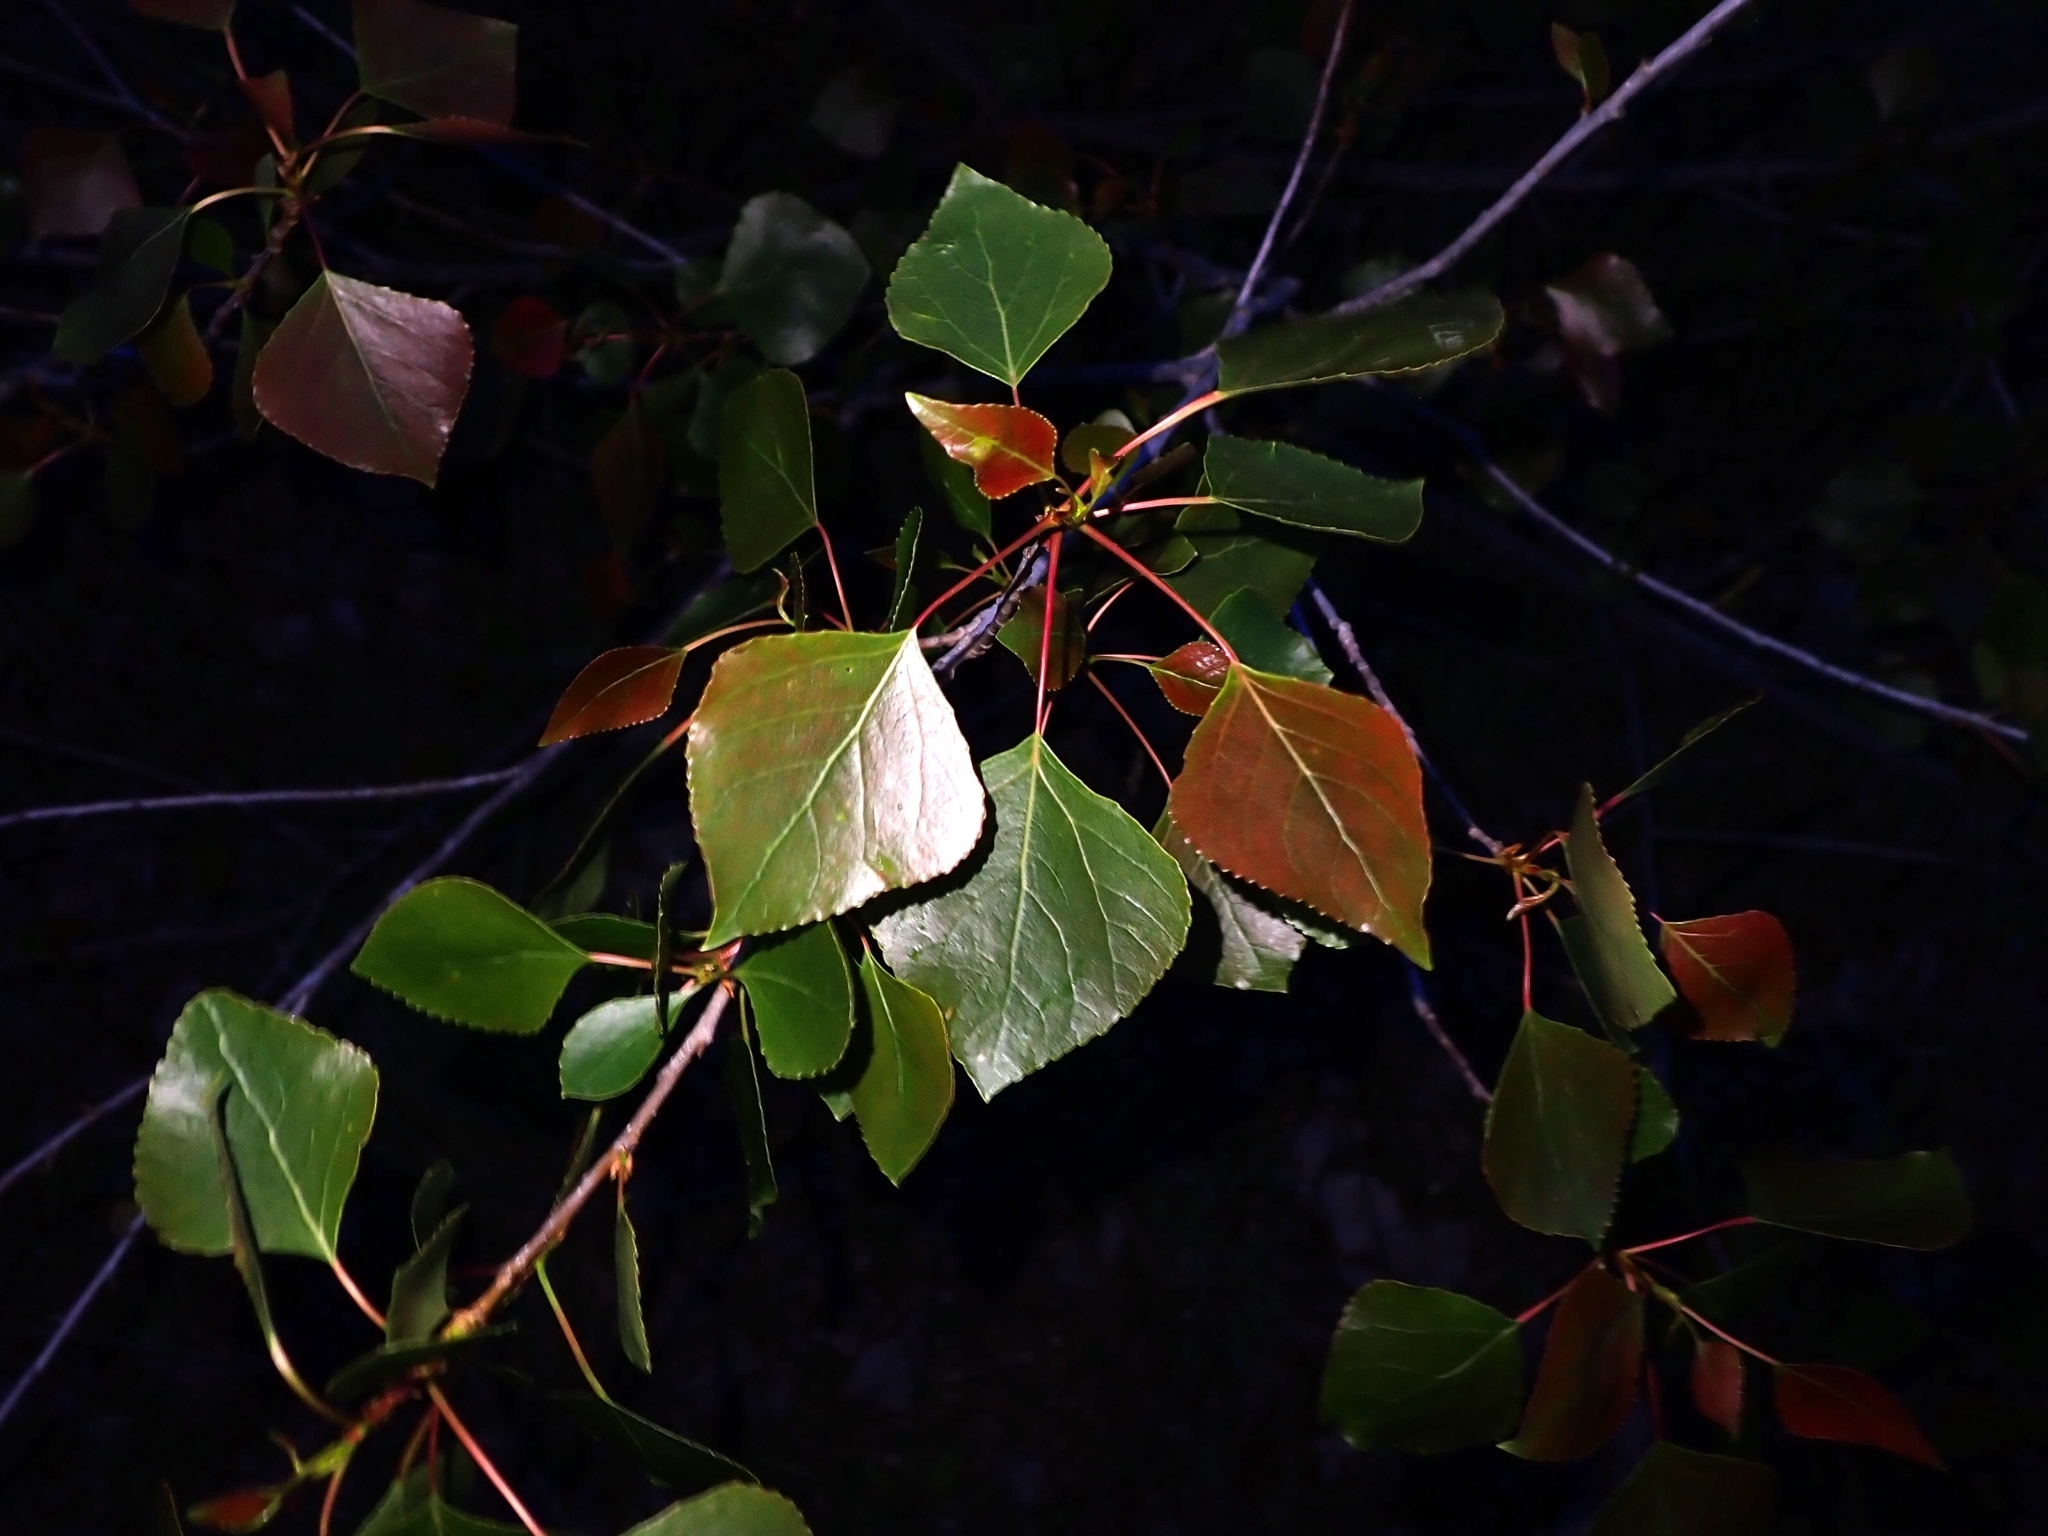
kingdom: Plantae
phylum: Tracheophyta
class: Magnoliopsida
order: Malpighiales
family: Salicaceae
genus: Populus
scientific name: Populus nigra
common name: Black poplar
